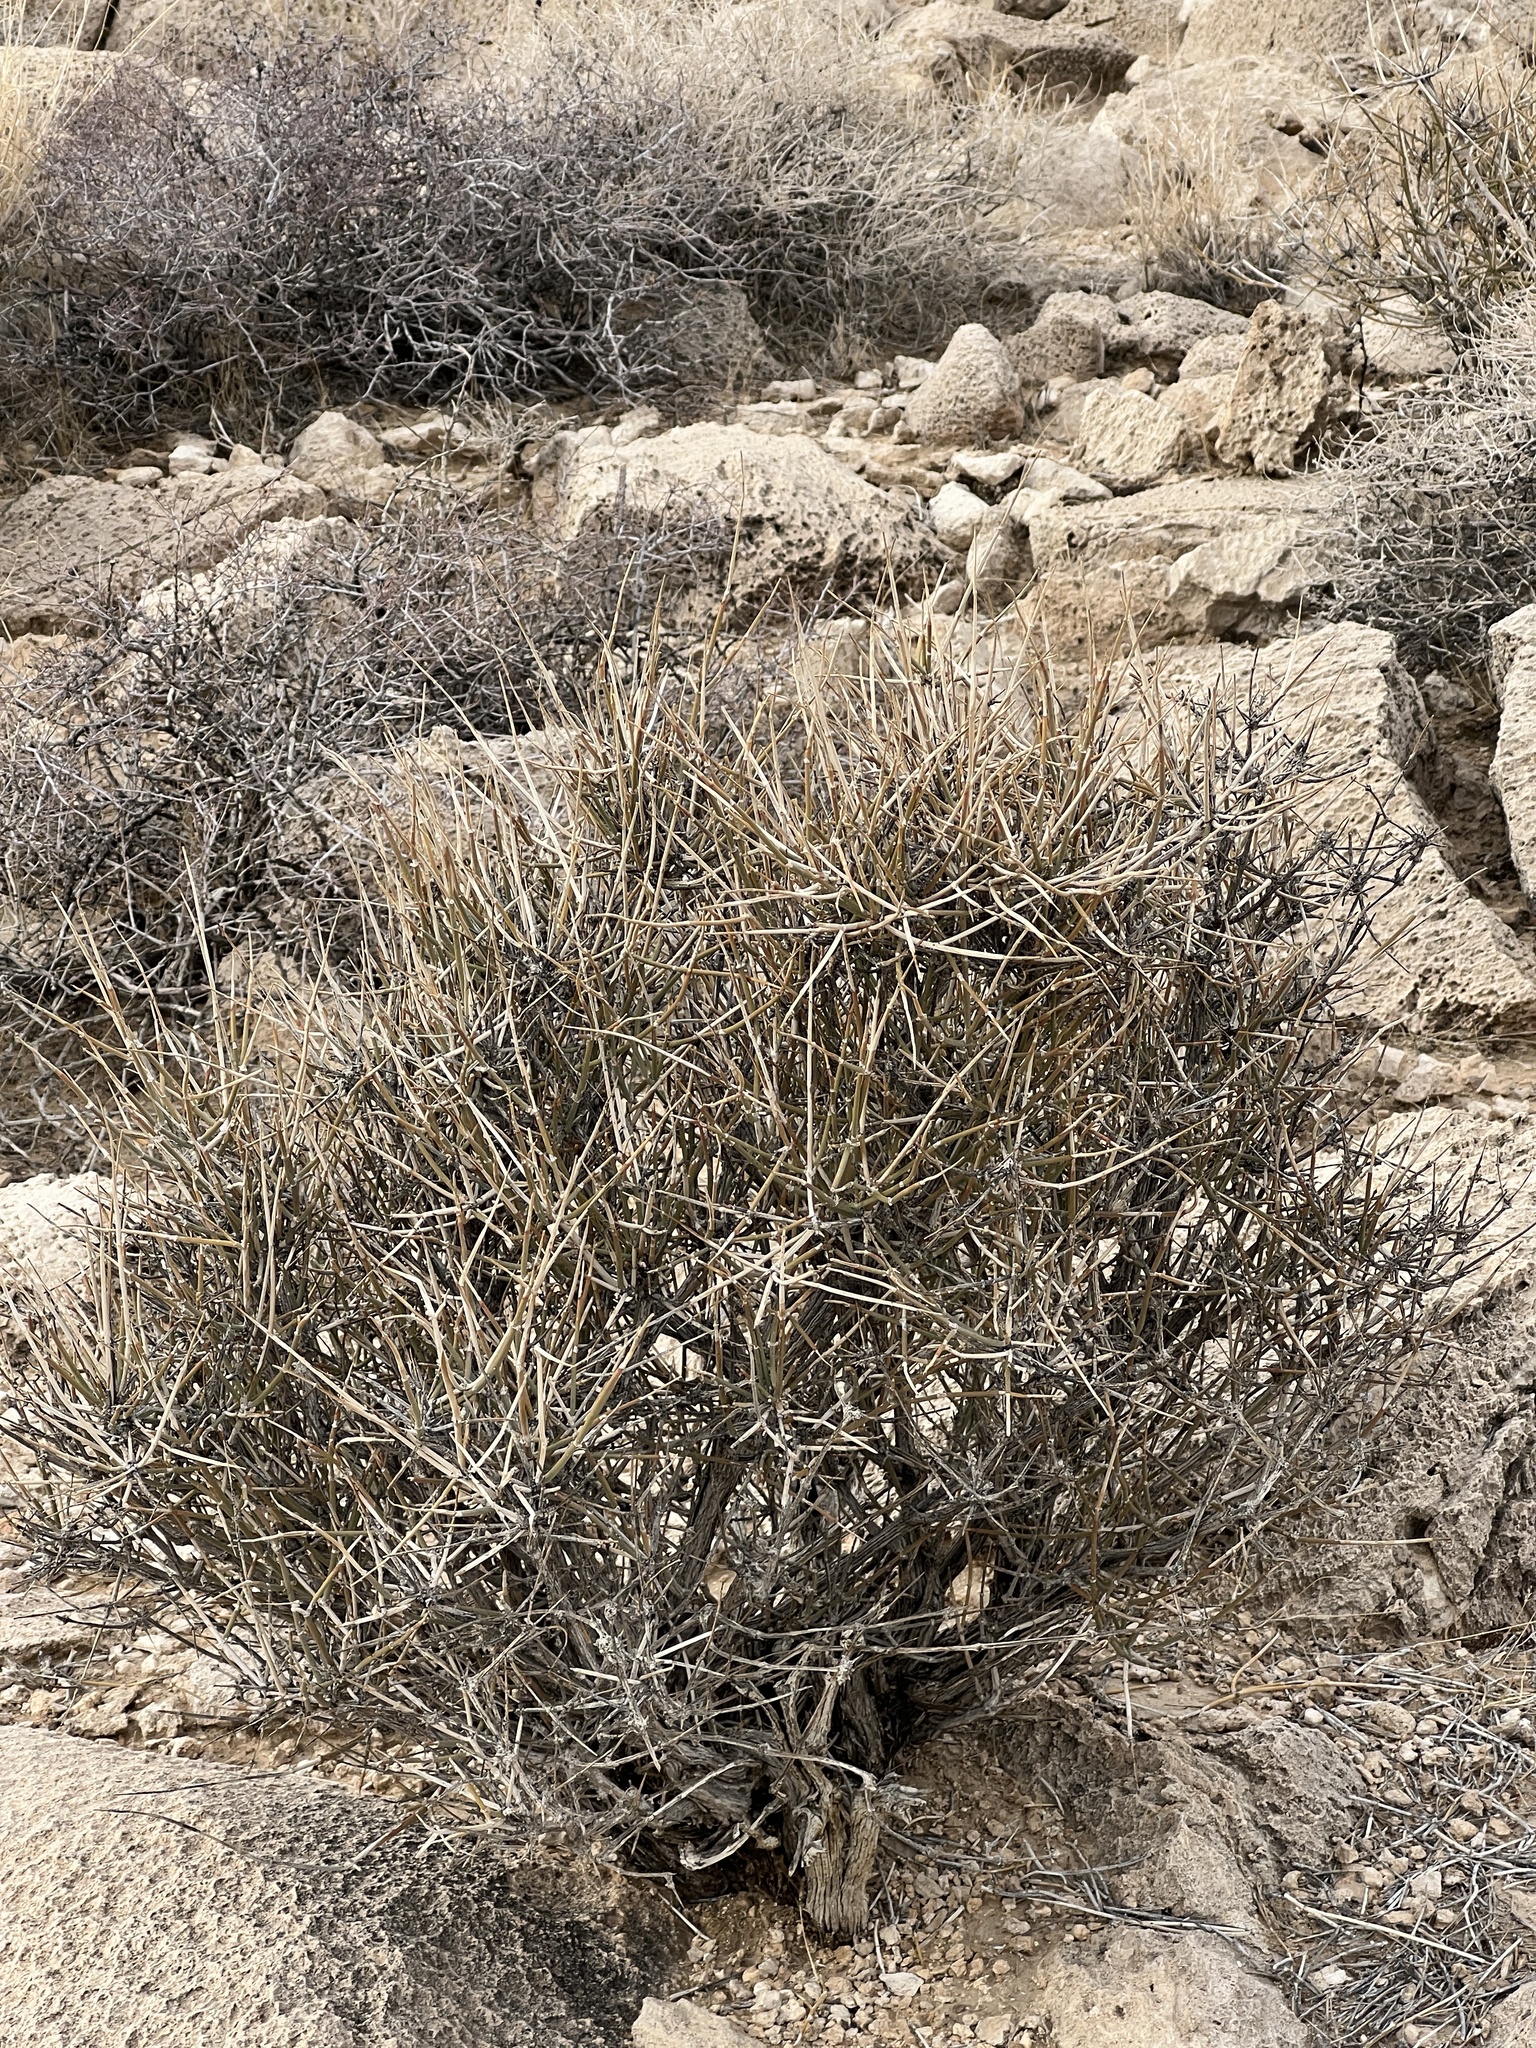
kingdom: Plantae
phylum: Tracheophyta
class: Gnetopsida
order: Ephedrales
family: Ephedraceae
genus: Ephedra
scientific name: Ephedra nevadensis
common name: Gray ephedra
